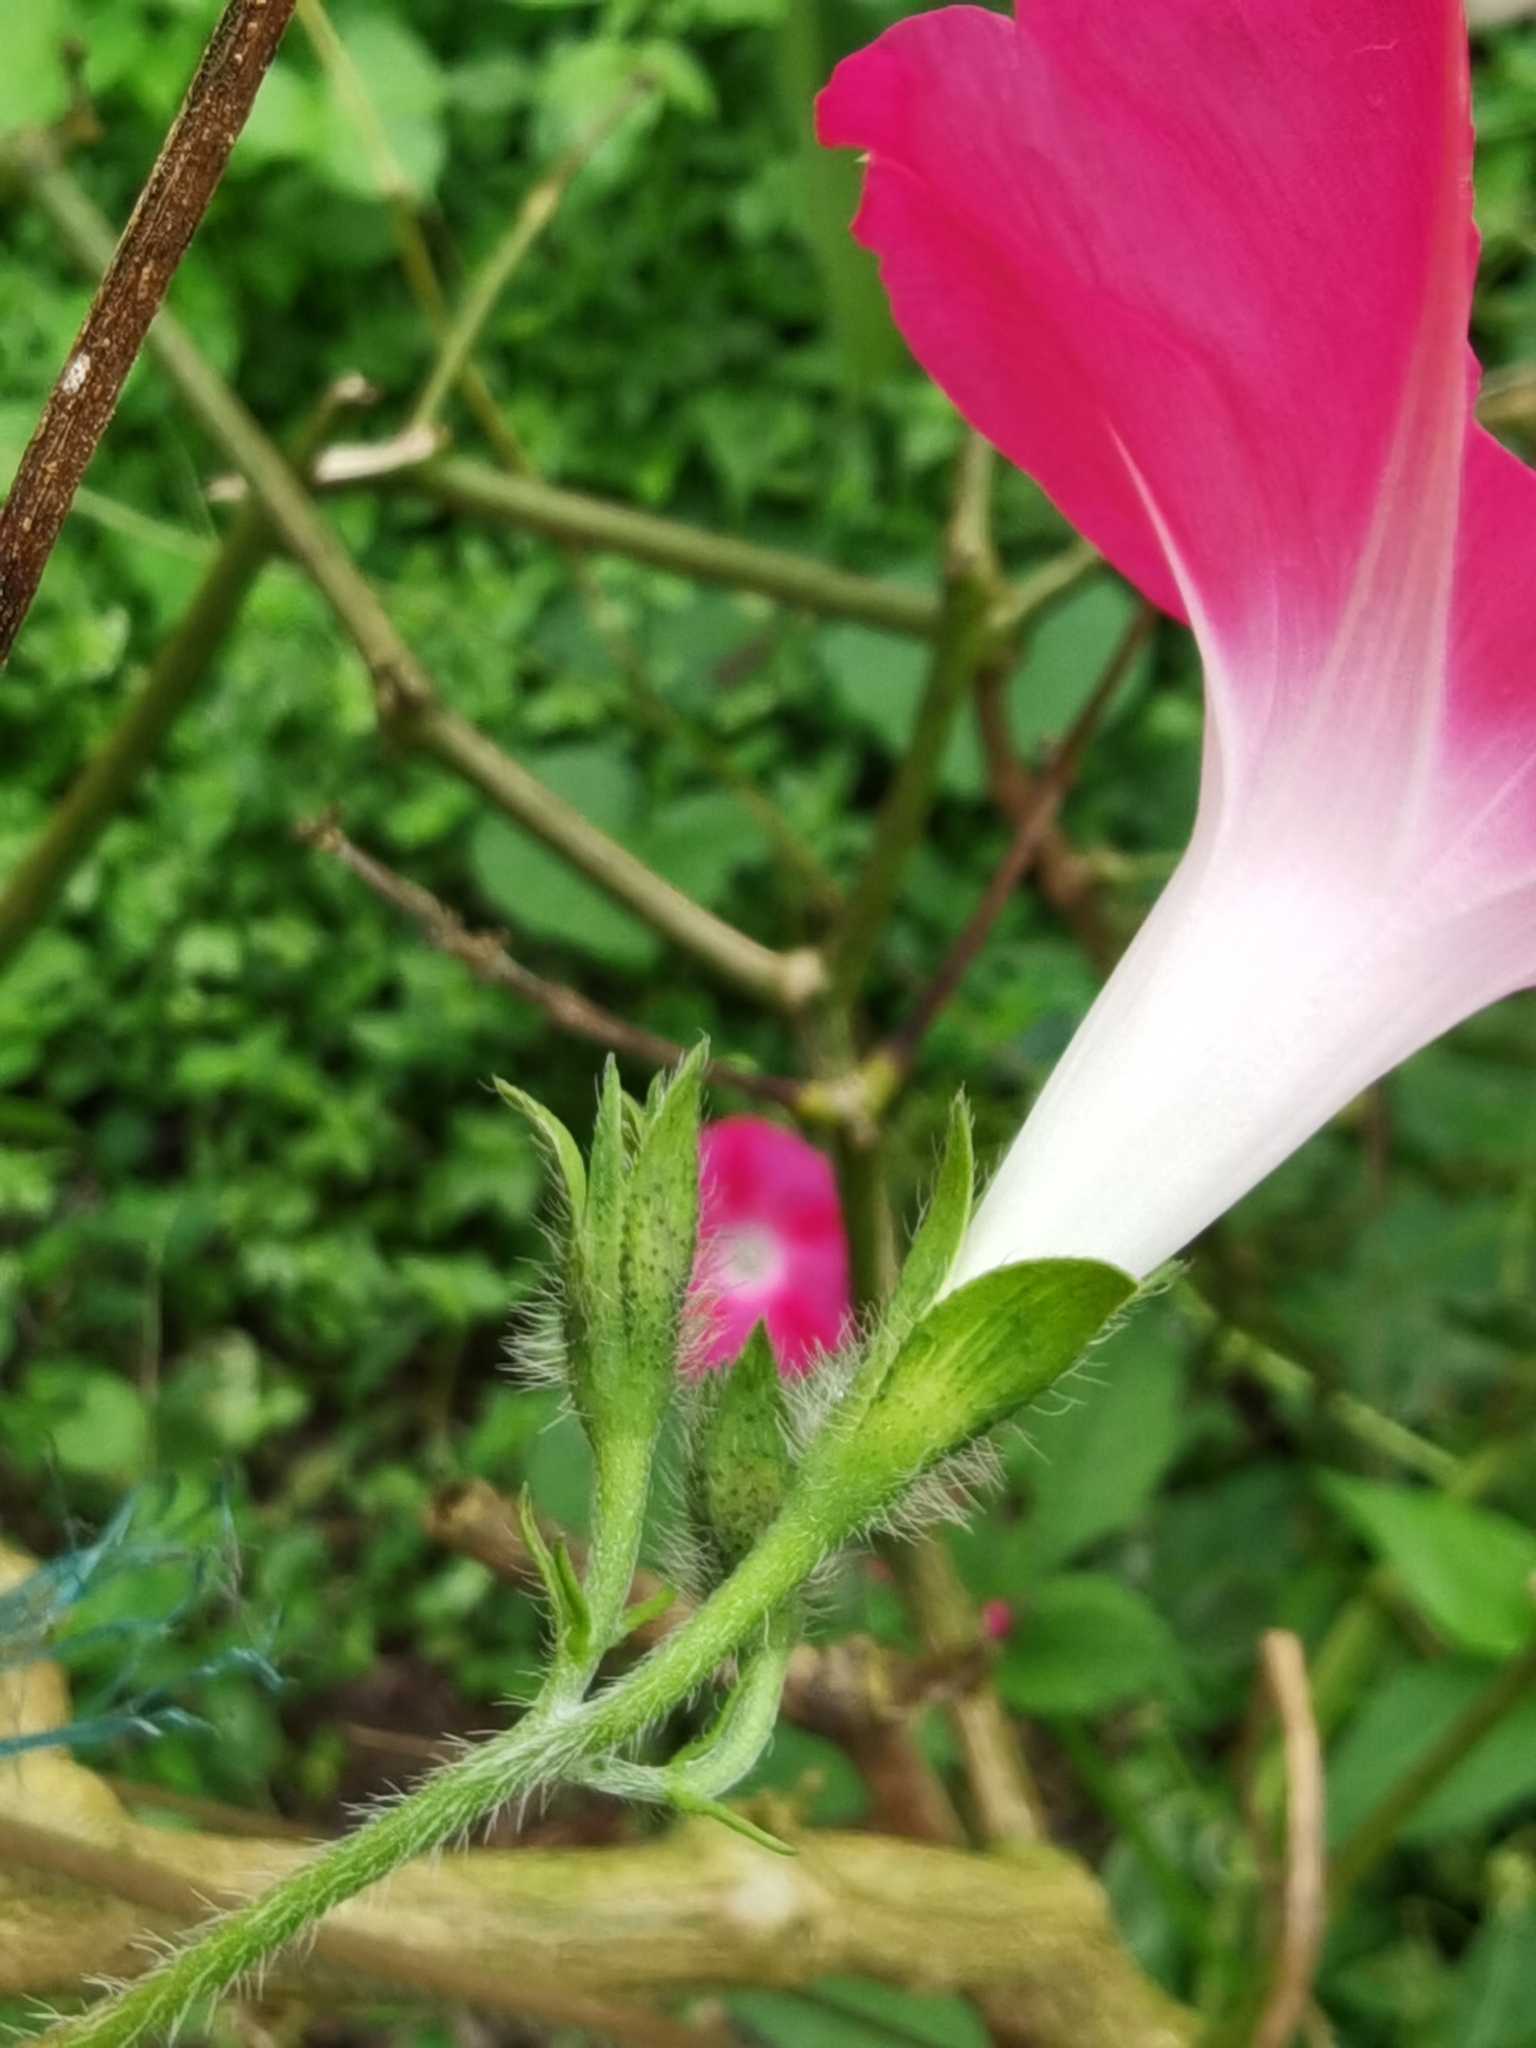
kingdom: Plantae
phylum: Tracheophyta
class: Magnoliopsida
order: Solanales
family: Convolvulaceae
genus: Ipomoea
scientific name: Ipomoea purpurea
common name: Common morning-glory
